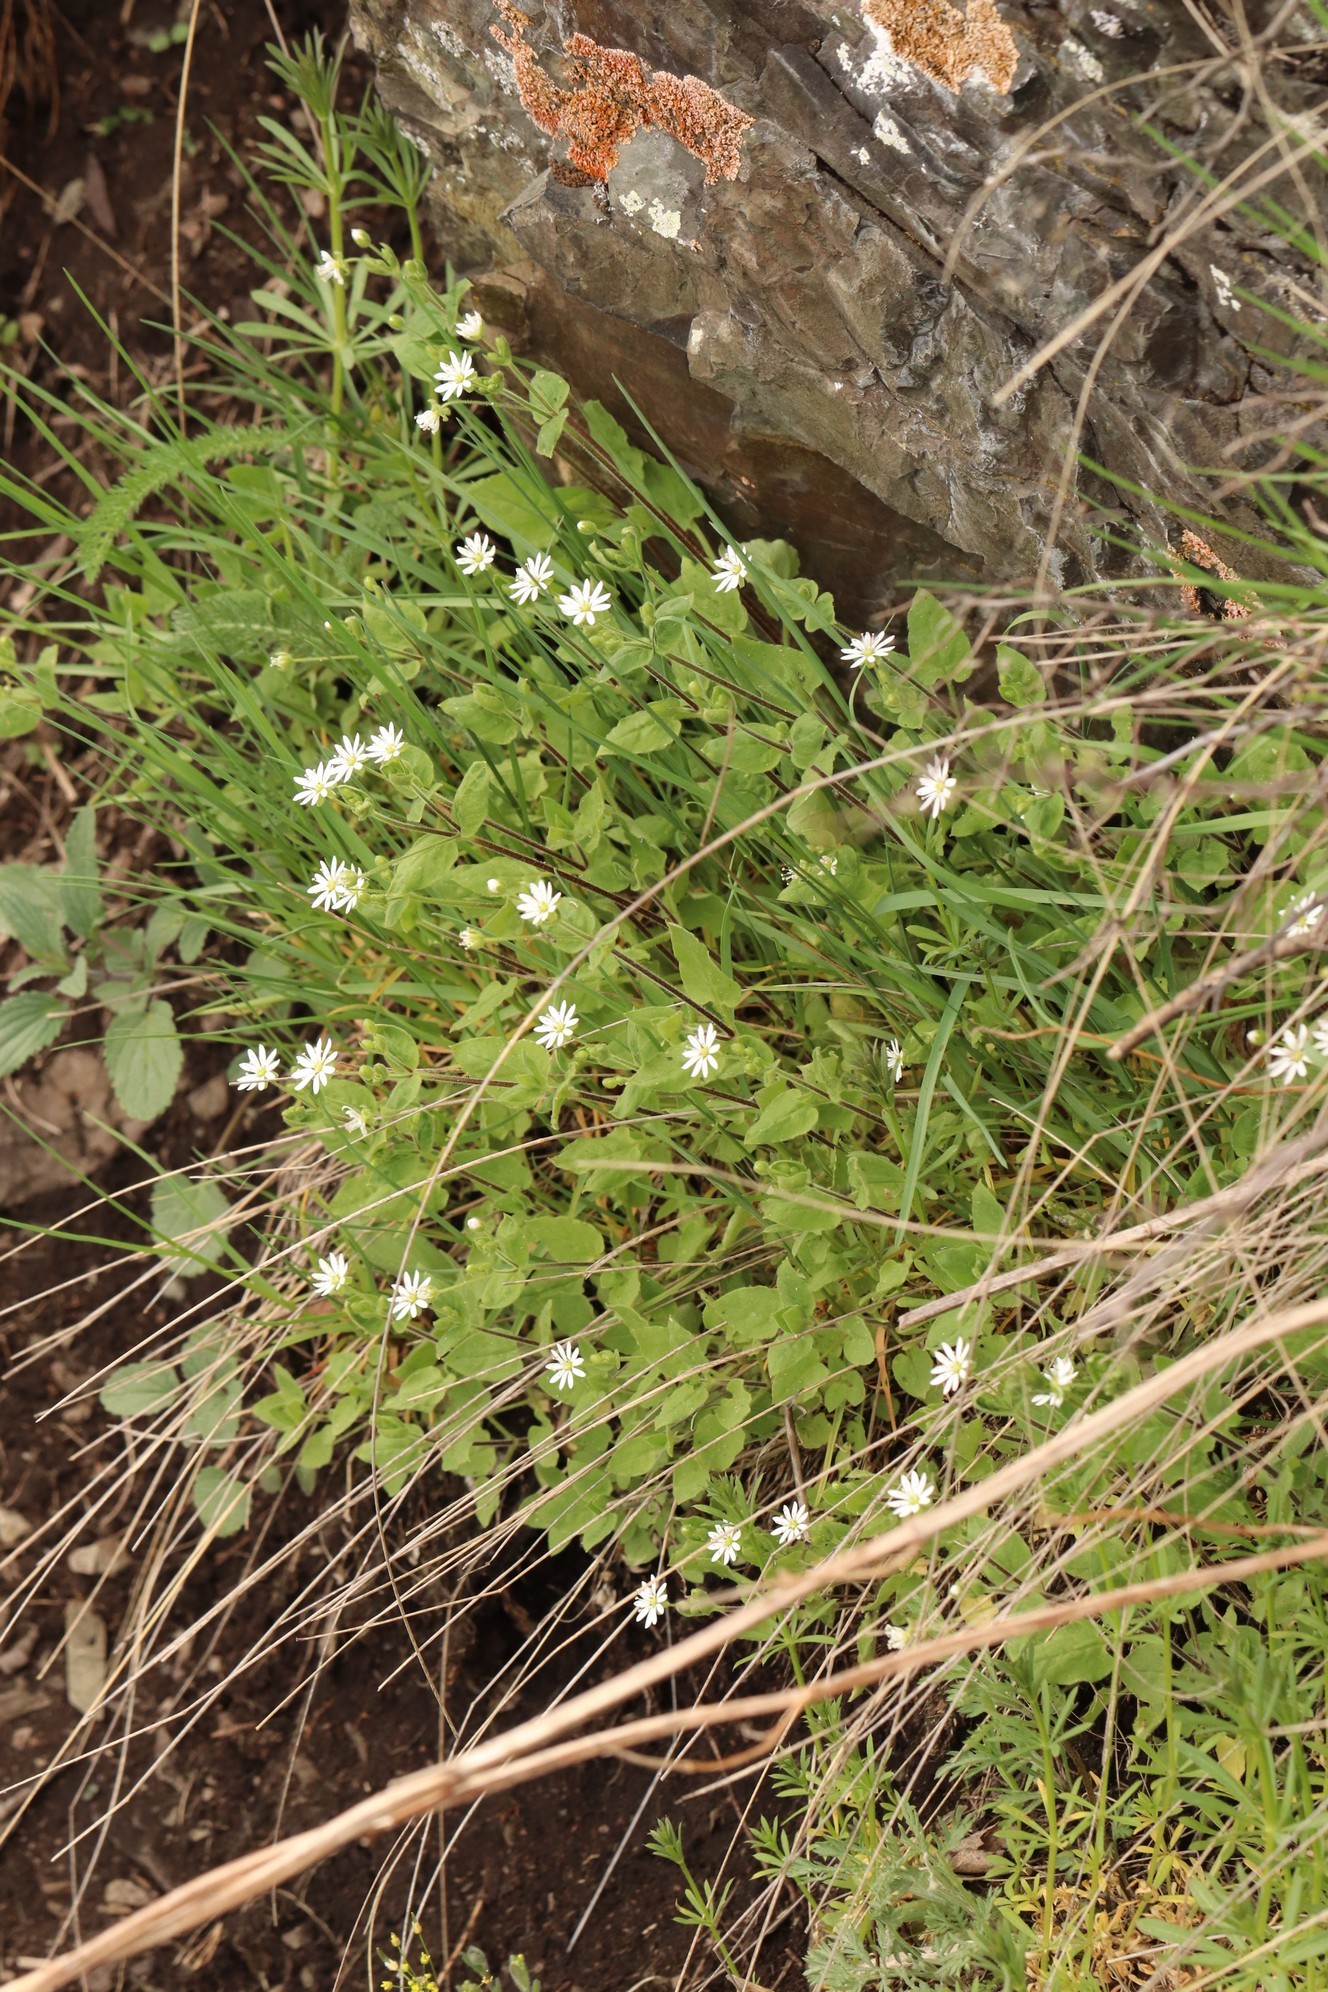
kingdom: Plantae
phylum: Tracheophyta
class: Magnoliopsida
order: Caryophyllales
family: Caryophyllaceae
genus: Stellaria
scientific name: Stellaria bungeana
